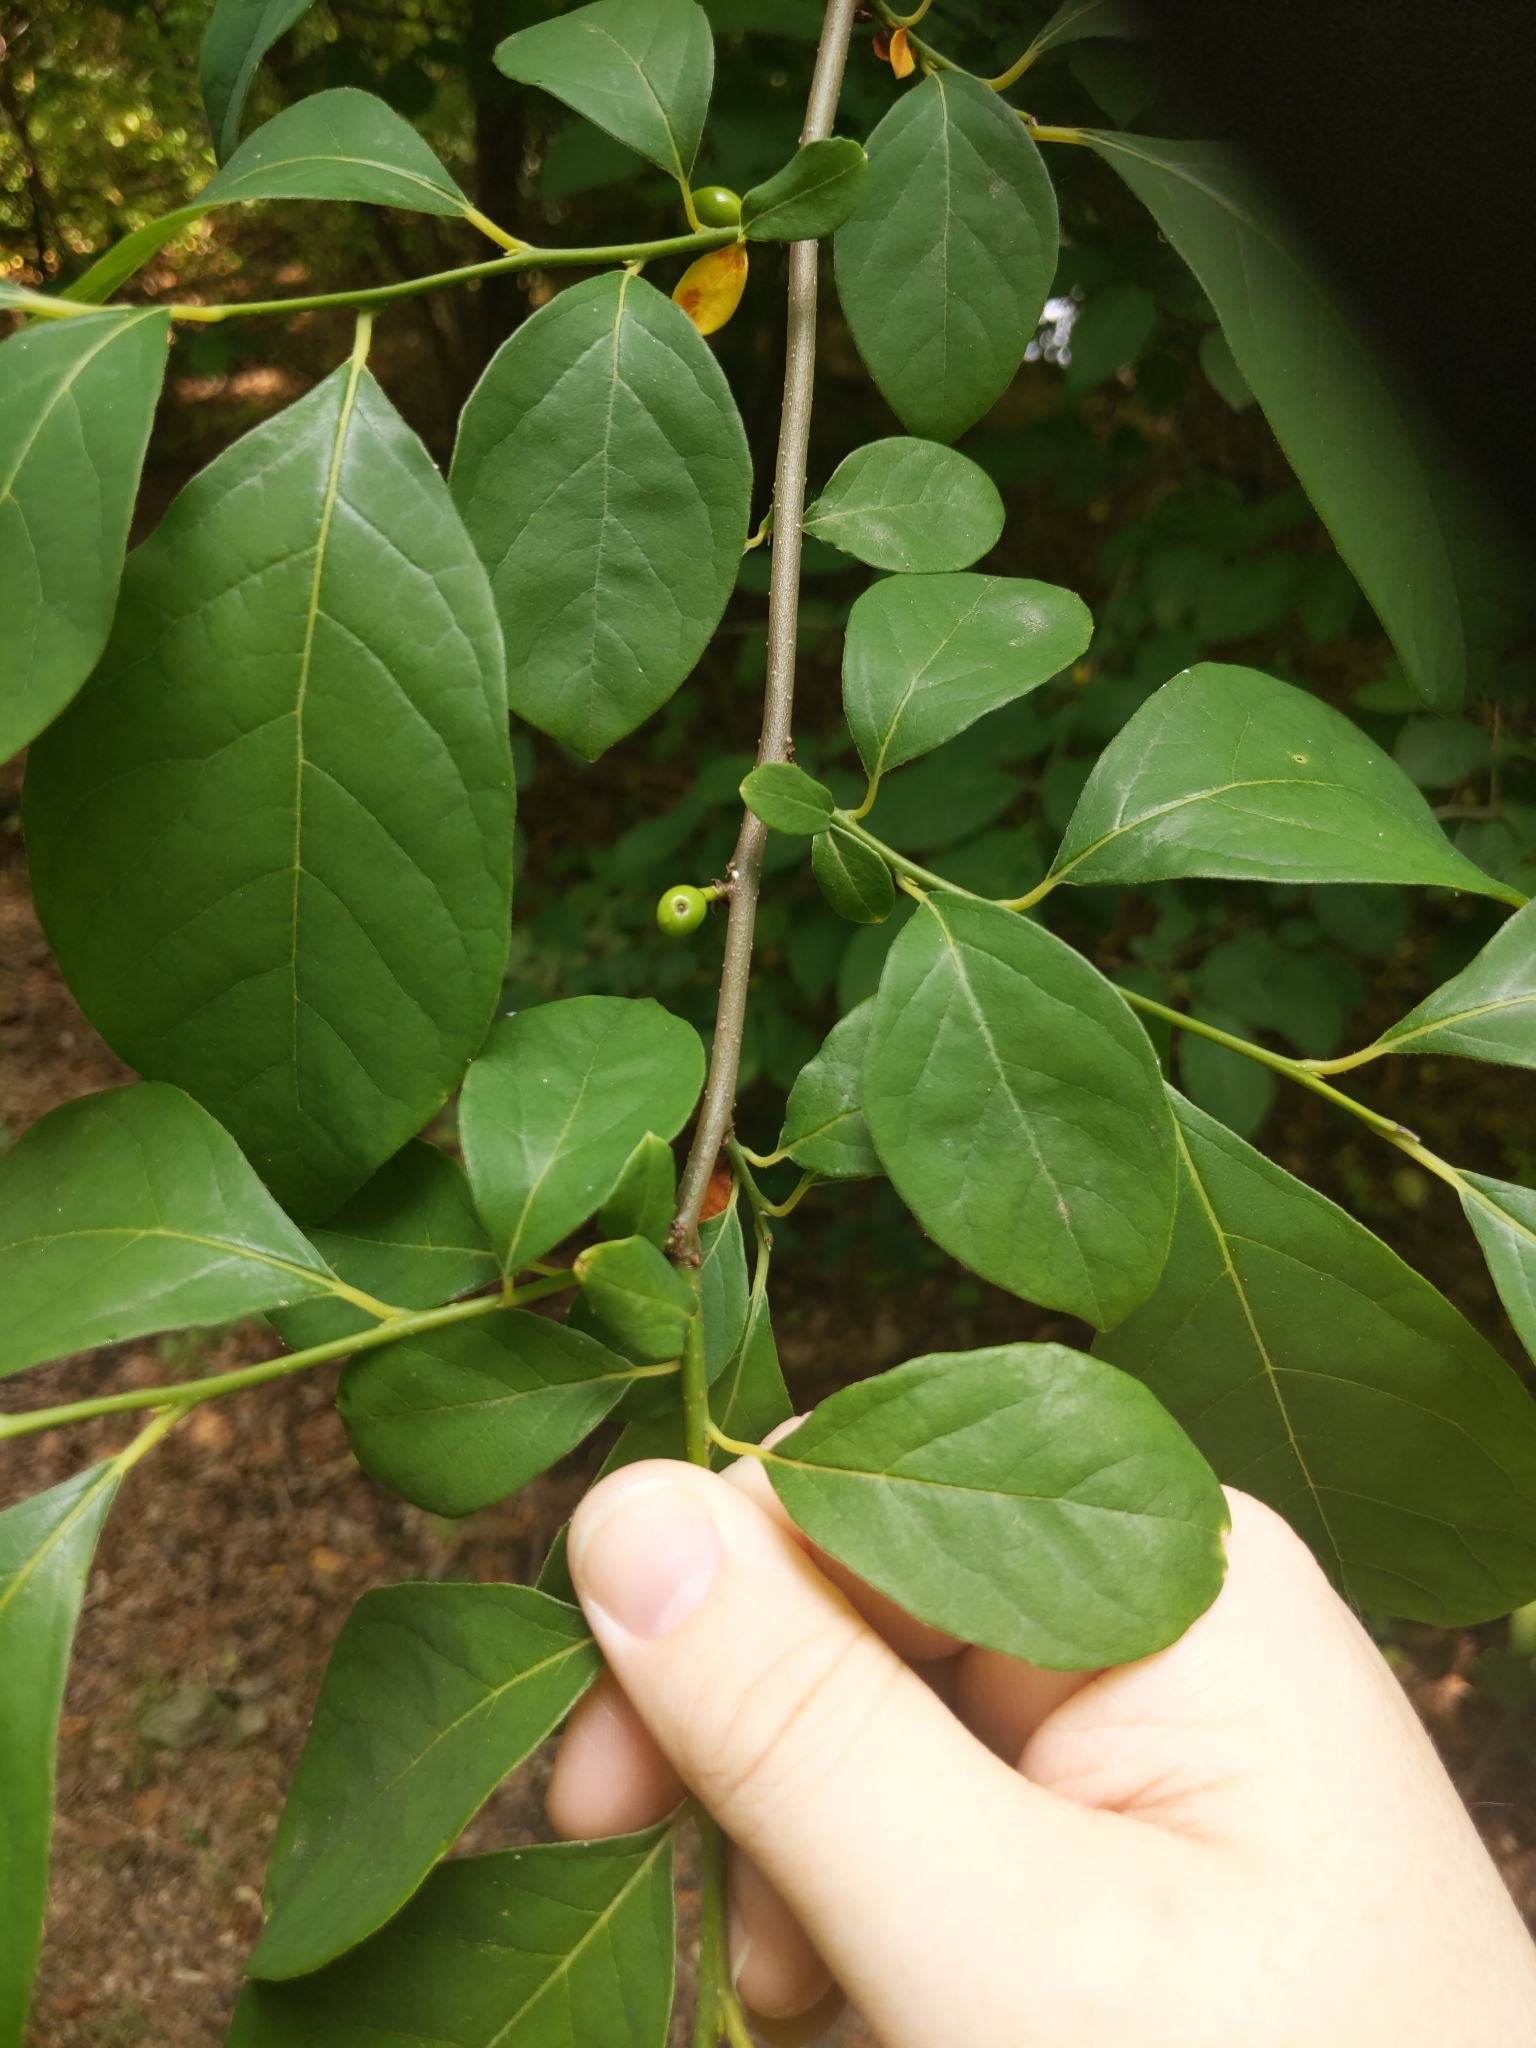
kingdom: Plantae
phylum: Tracheophyta
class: Magnoliopsida
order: Laurales
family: Lauraceae
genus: Lindera
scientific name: Lindera benzoin
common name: Spicebush
